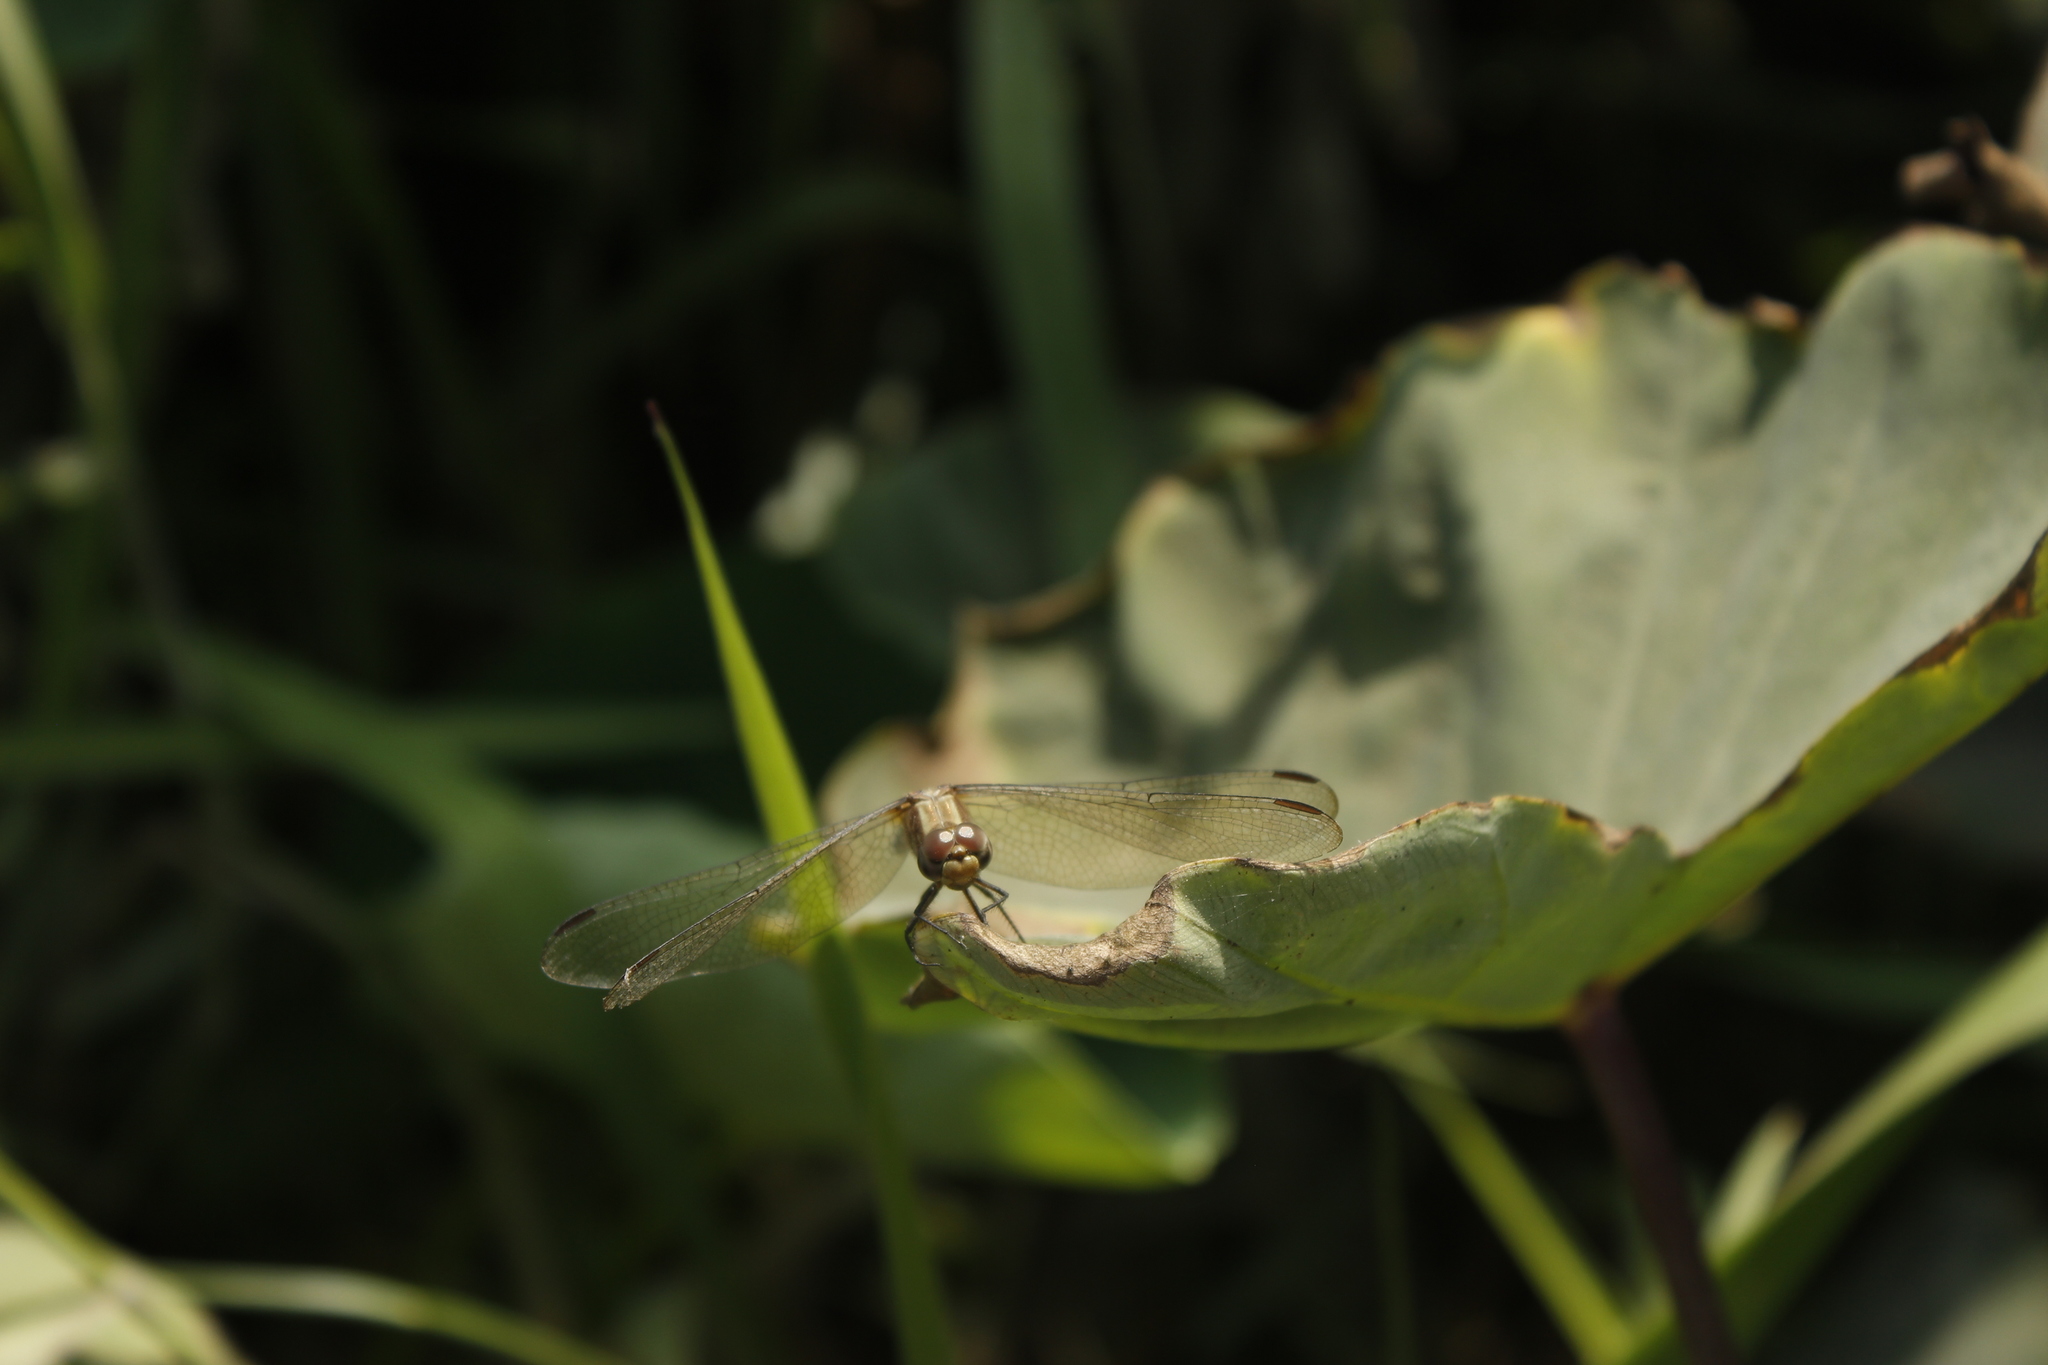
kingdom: Animalia
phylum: Arthropoda
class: Insecta
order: Odonata
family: Libellulidae
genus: Dythemis
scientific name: Dythemis sterilis
